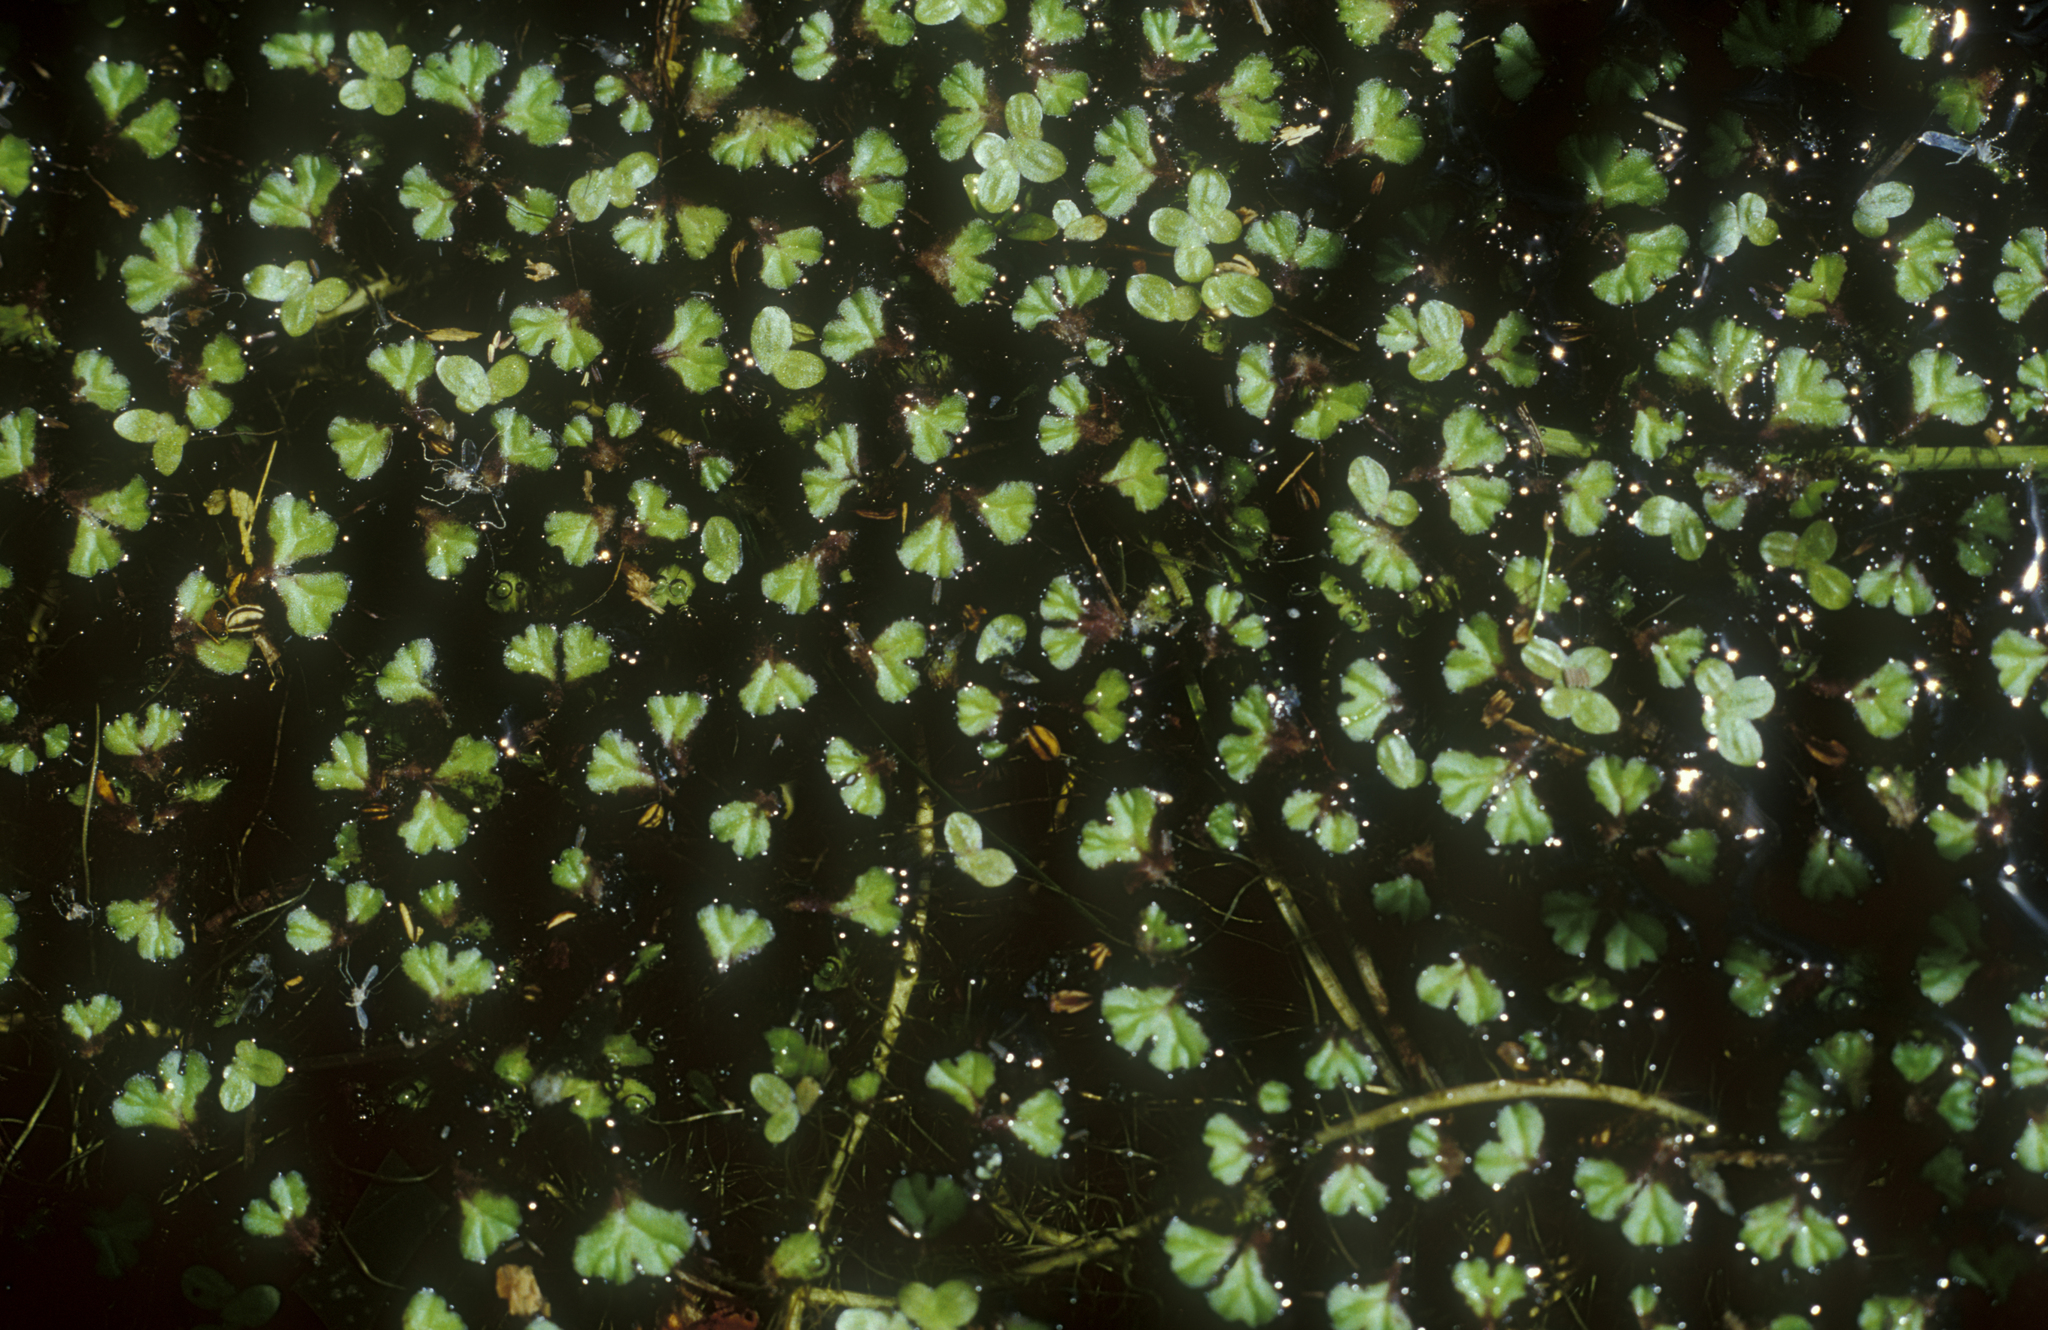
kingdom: Plantae
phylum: Marchantiophyta
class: Marchantiopsida
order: Marchantiales
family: Ricciaceae
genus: Ricciocarpos
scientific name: Ricciocarpos natans
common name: Purple-fringed liverwort
